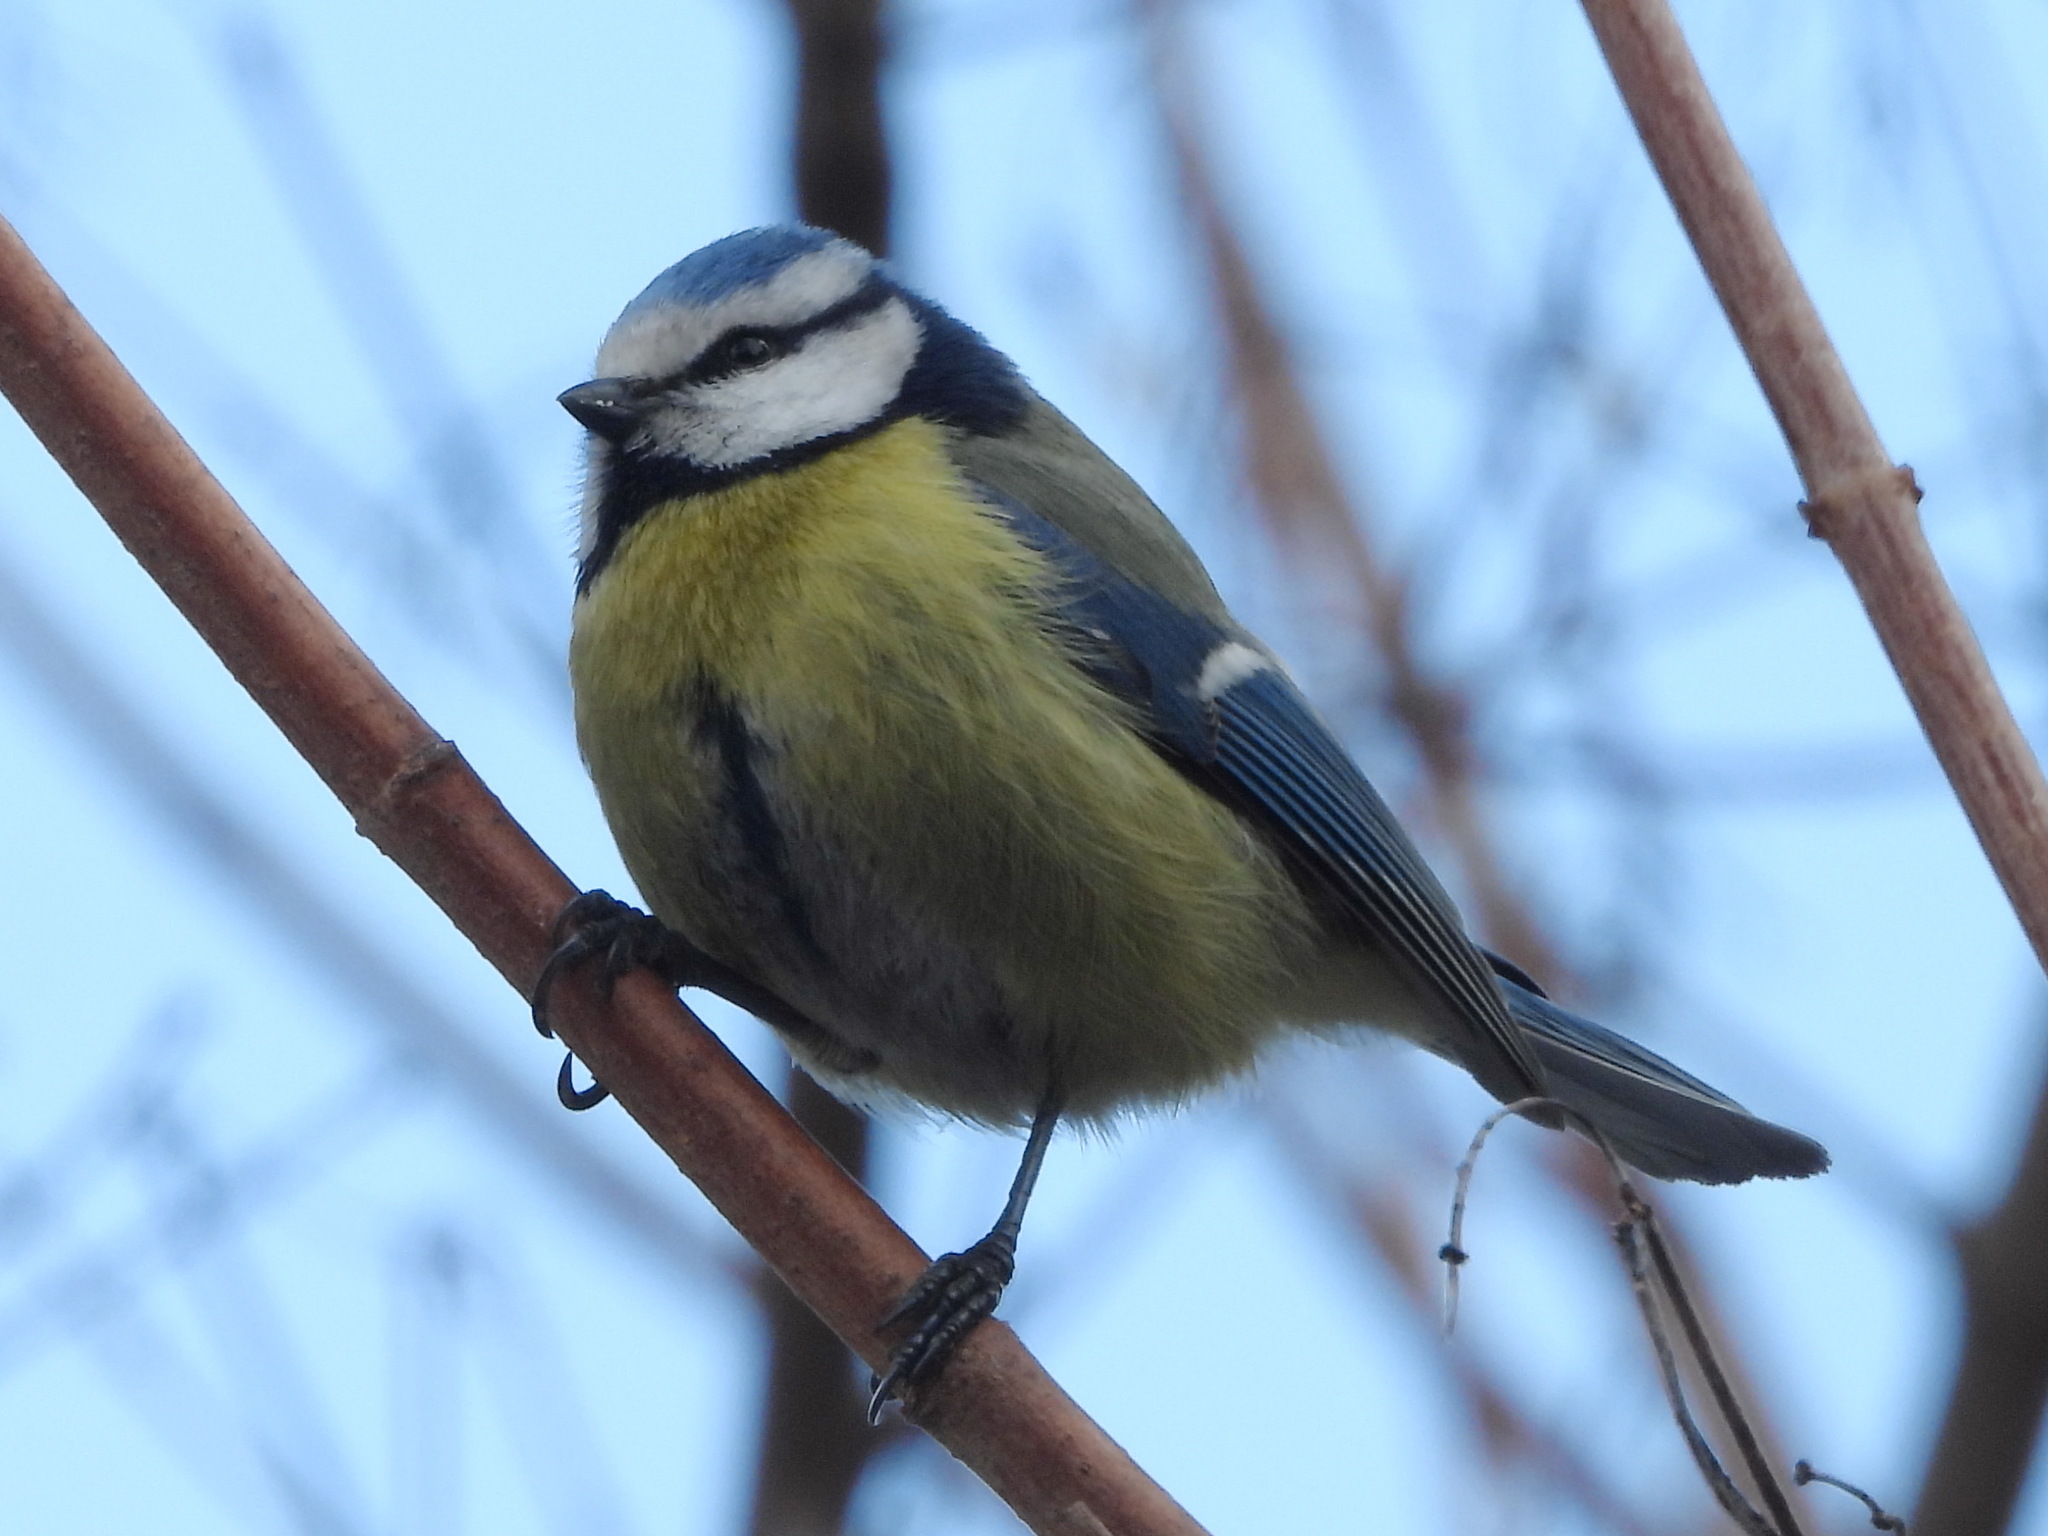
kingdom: Animalia
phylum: Chordata
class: Aves
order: Passeriformes
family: Paridae
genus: Cyanistes
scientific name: Cyanistes caeruleus
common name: Eurasian blue tit
